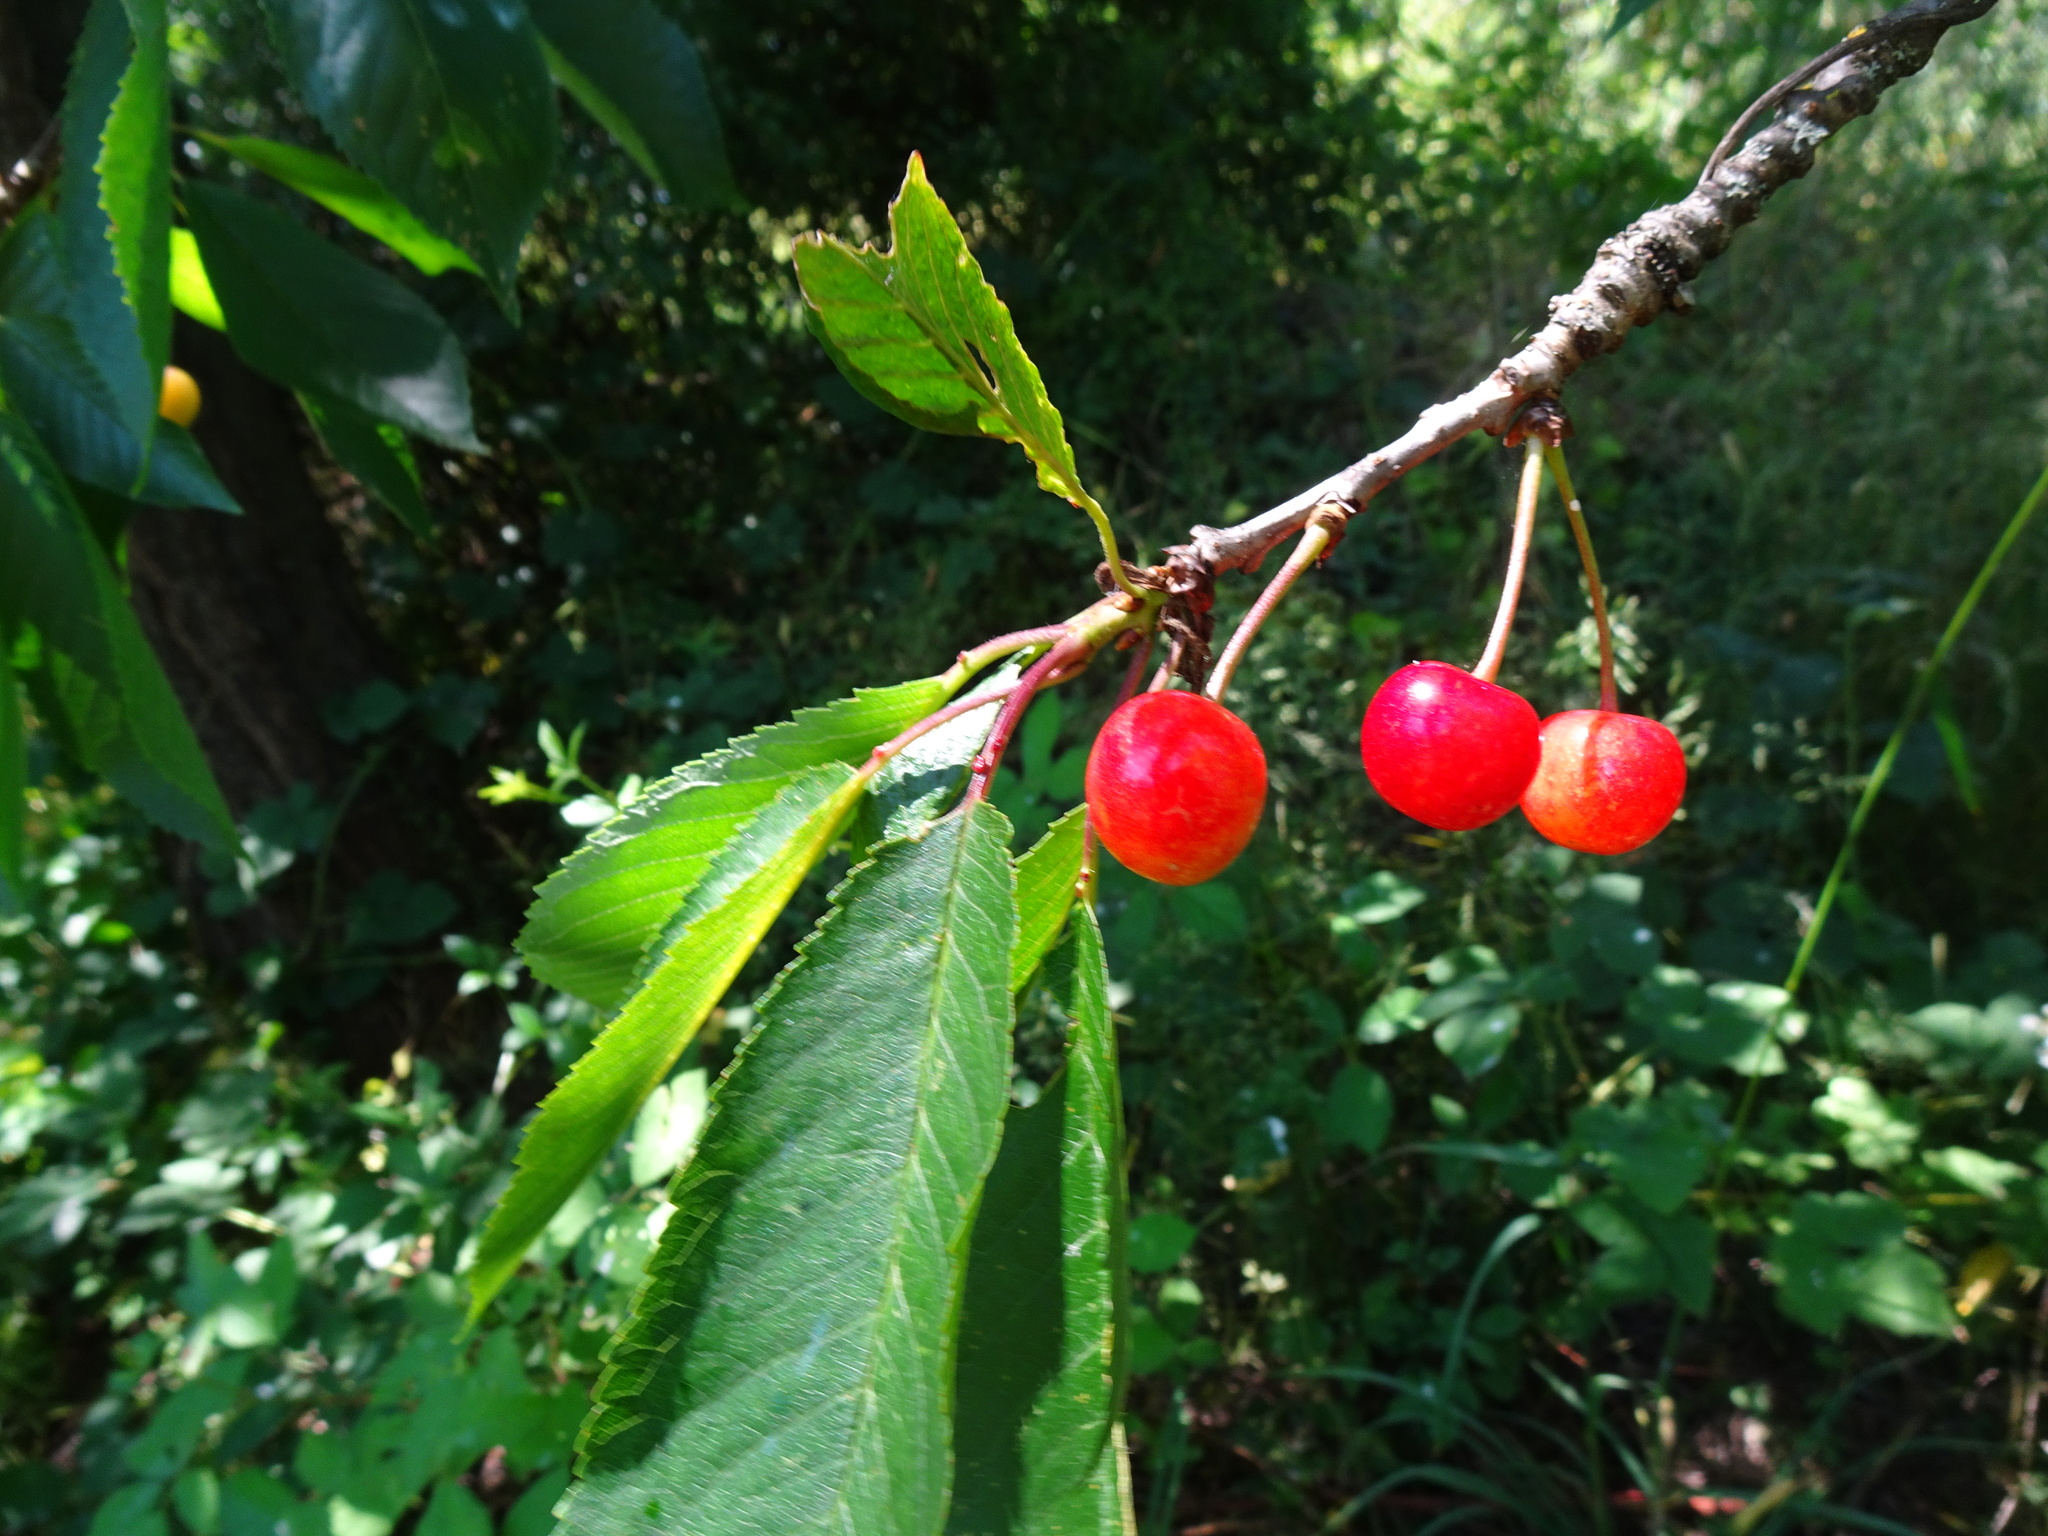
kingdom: Plantae
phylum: Tracheophyta
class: Magnoliopsida
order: Rosales
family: Rosaceae
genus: Prunus
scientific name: Prunus avium
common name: Sweet cherry
